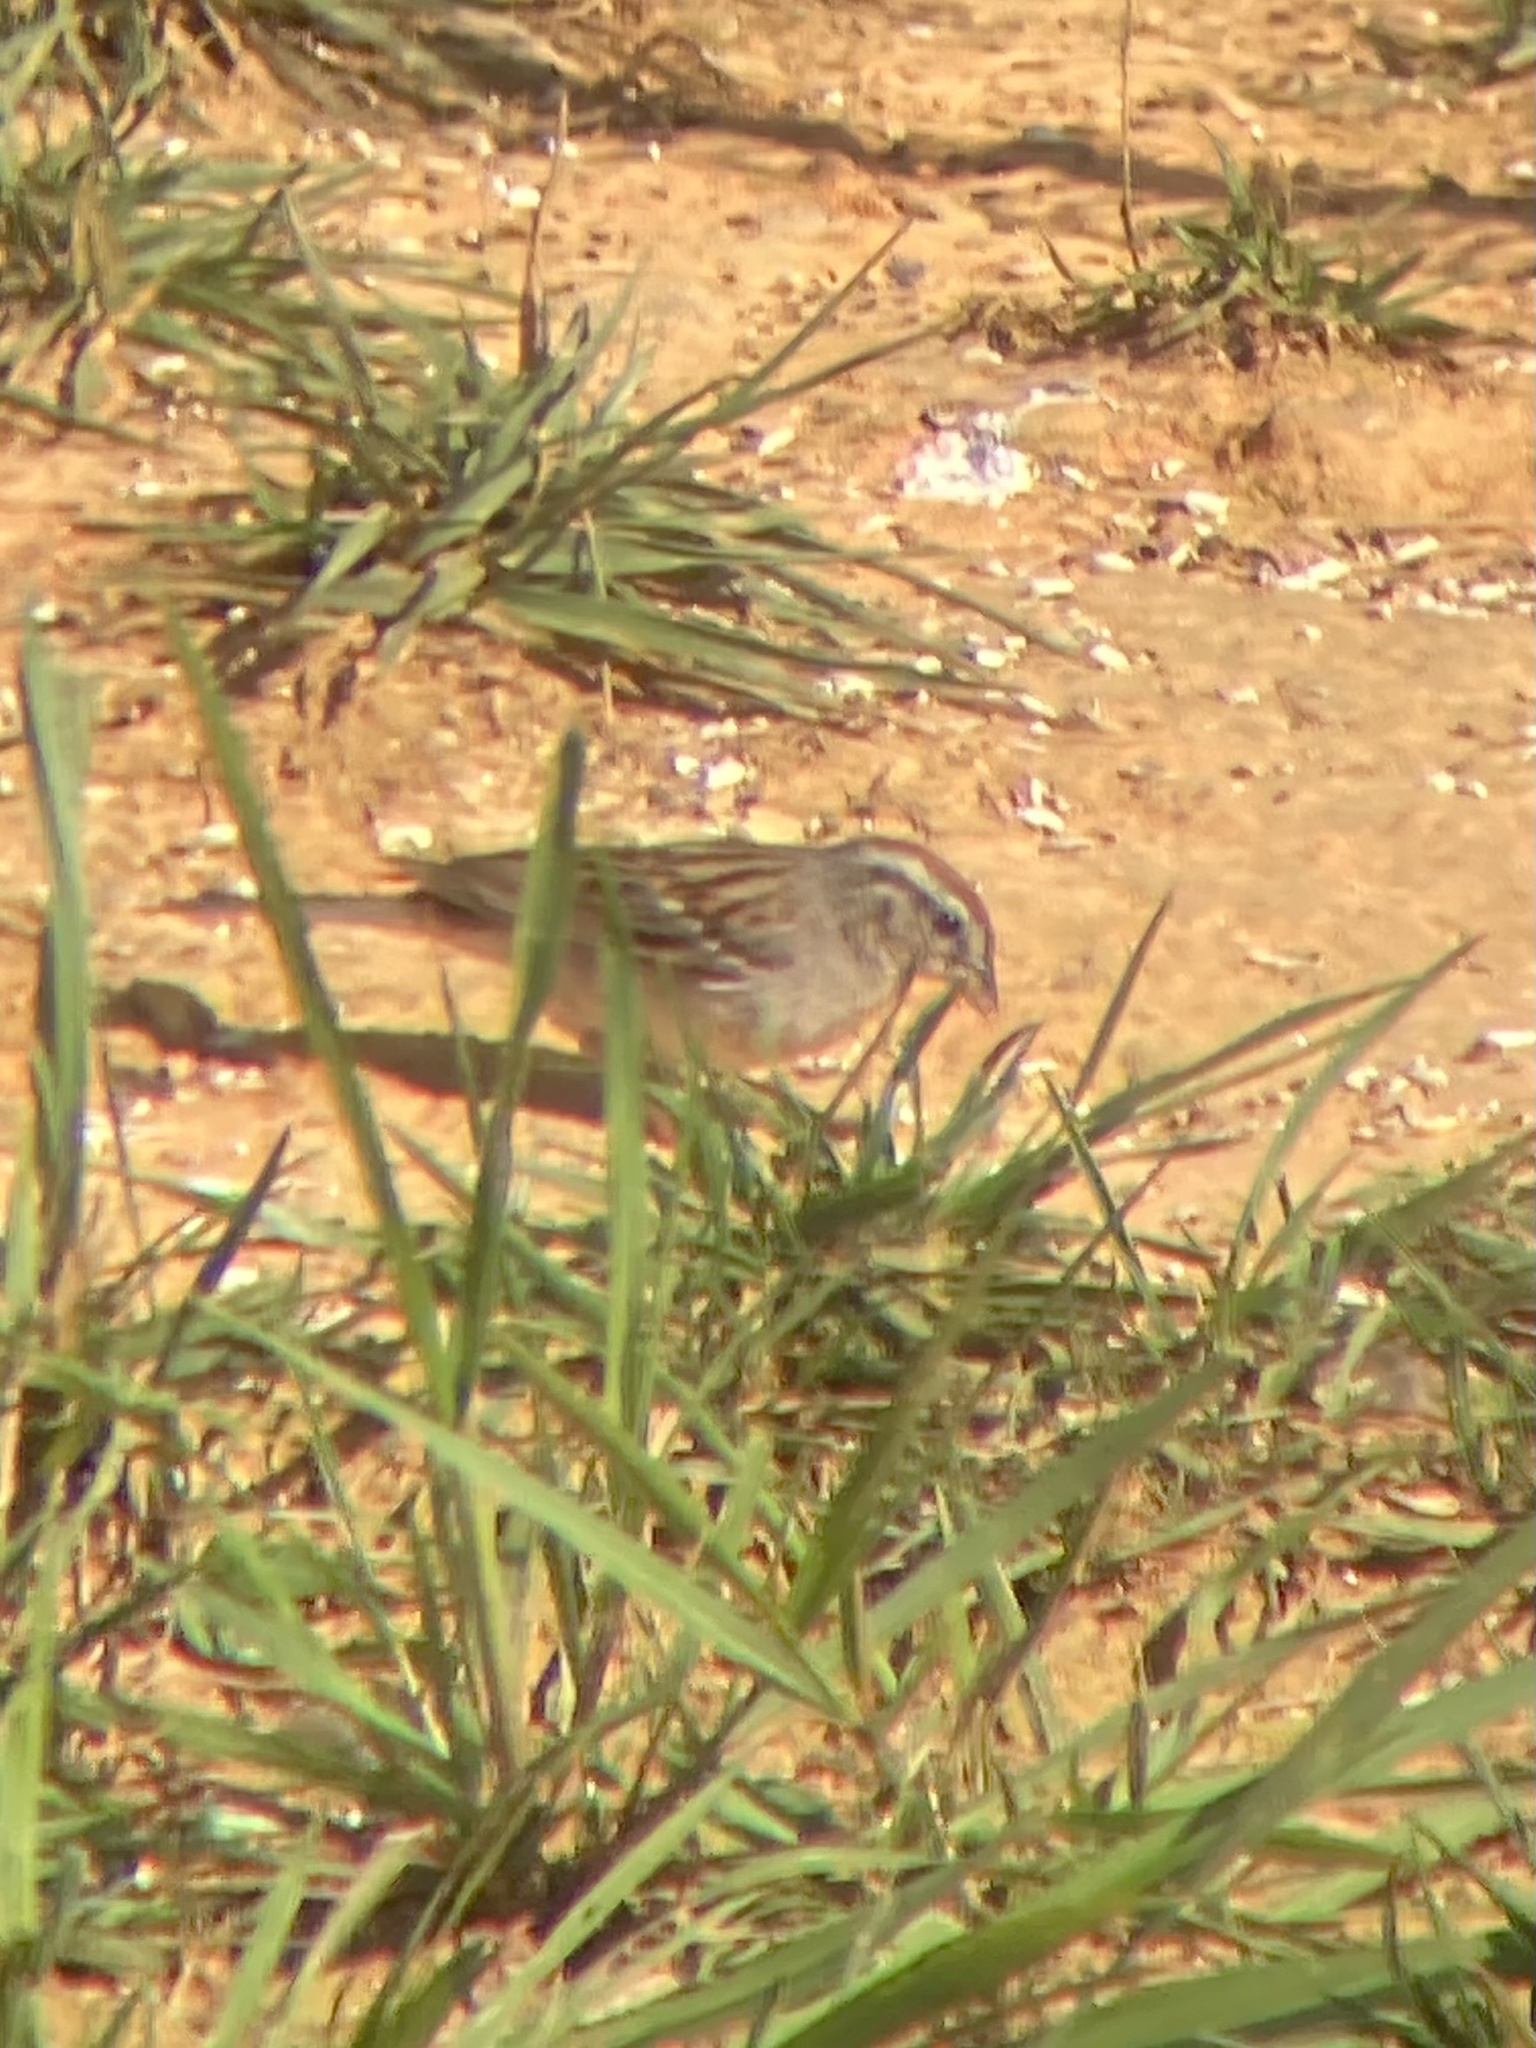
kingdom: Animalia
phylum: Chordata
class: Aves
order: Passeriformes
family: Passerellidae
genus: Spizella
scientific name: Spizella passerina
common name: Chipping sparrow
